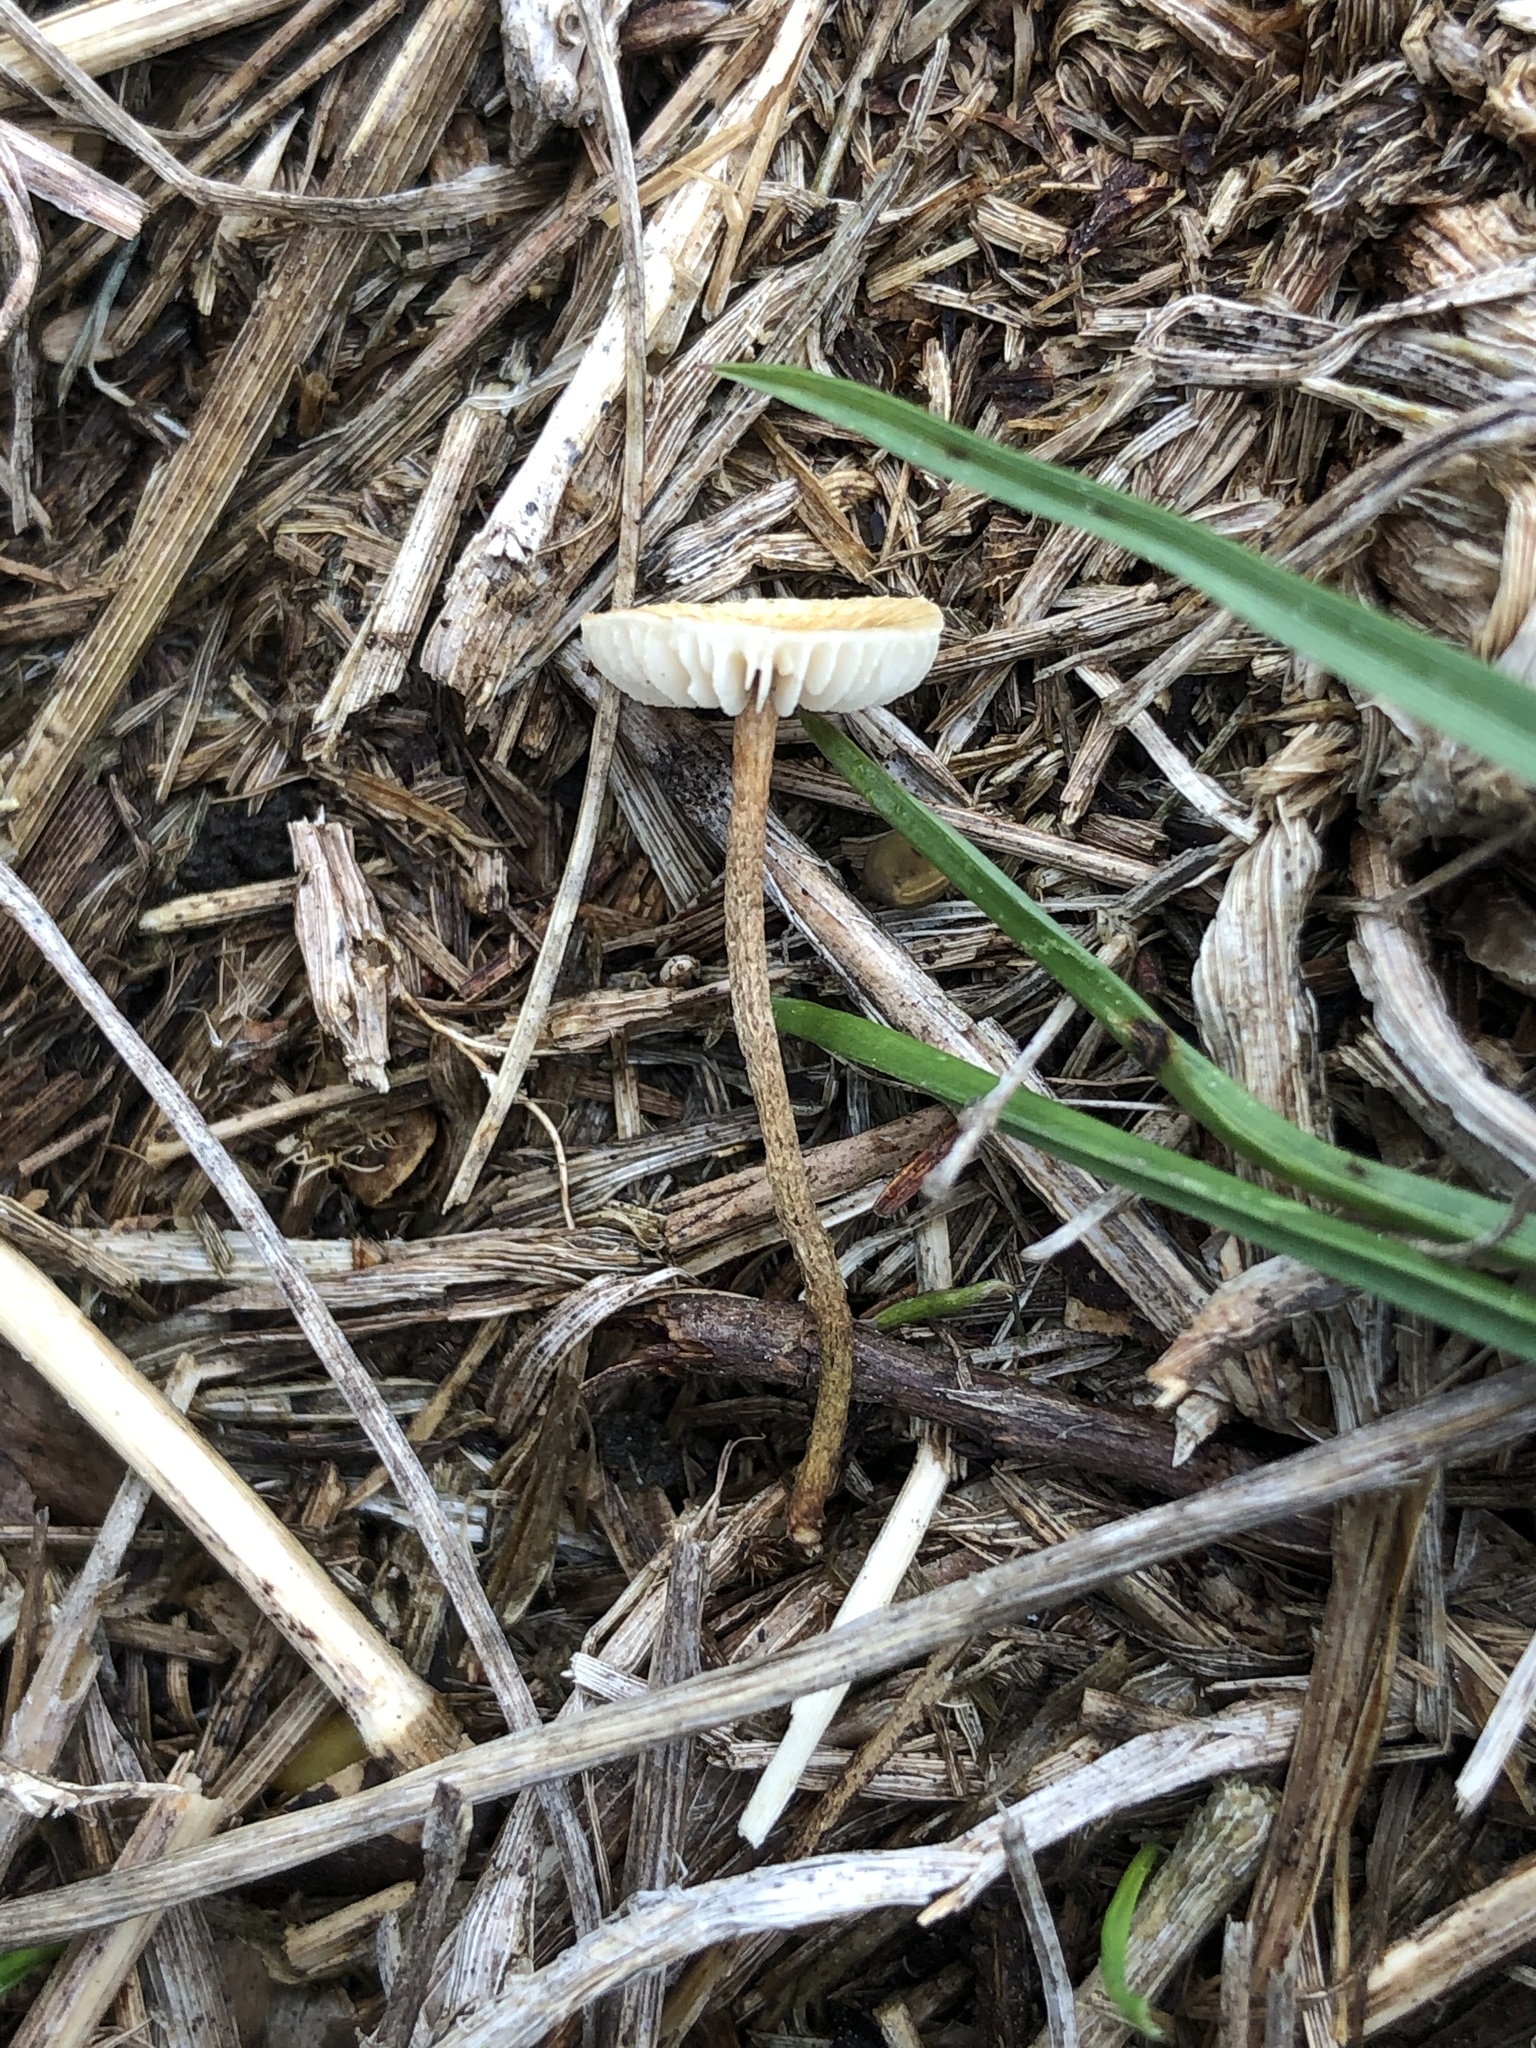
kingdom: Fungi
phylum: Basidiomycota
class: Agaricomycetes
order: Agaricales
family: Marasmiaceae
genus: Crinipellis
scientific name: Crinipellis scabella
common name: Hairy parachute
